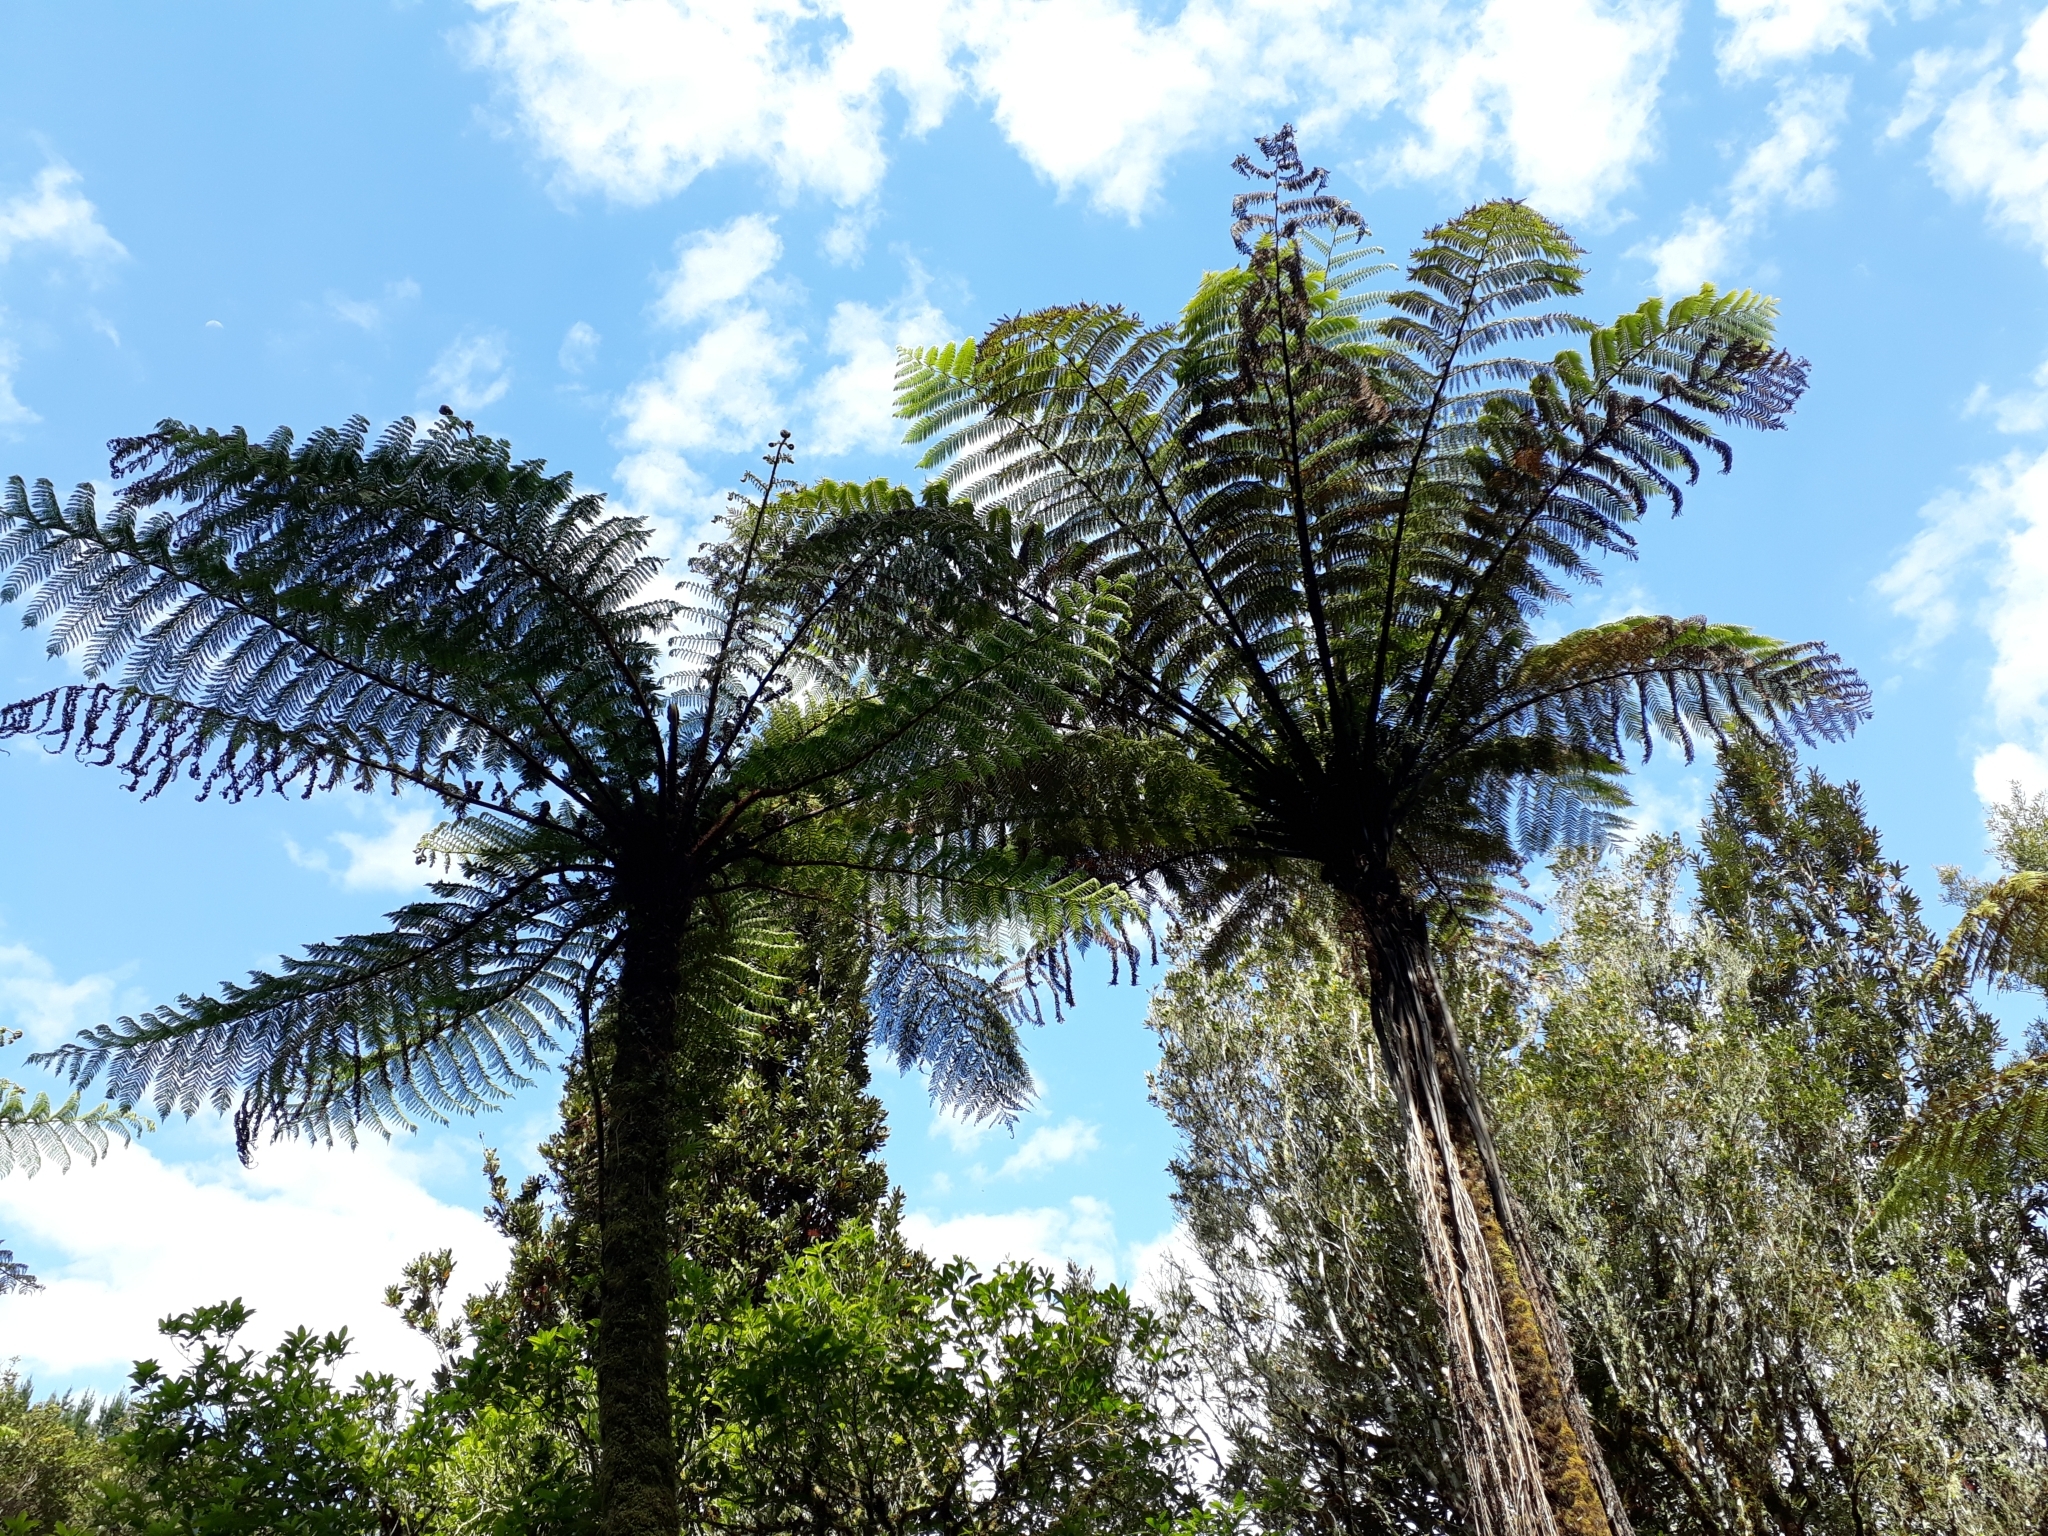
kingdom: Plantae
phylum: Tracheophyta
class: Polypodiopsida
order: Cyatheales
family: Cyatheaceae
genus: Cyathea
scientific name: Cyathea cunninghamii
